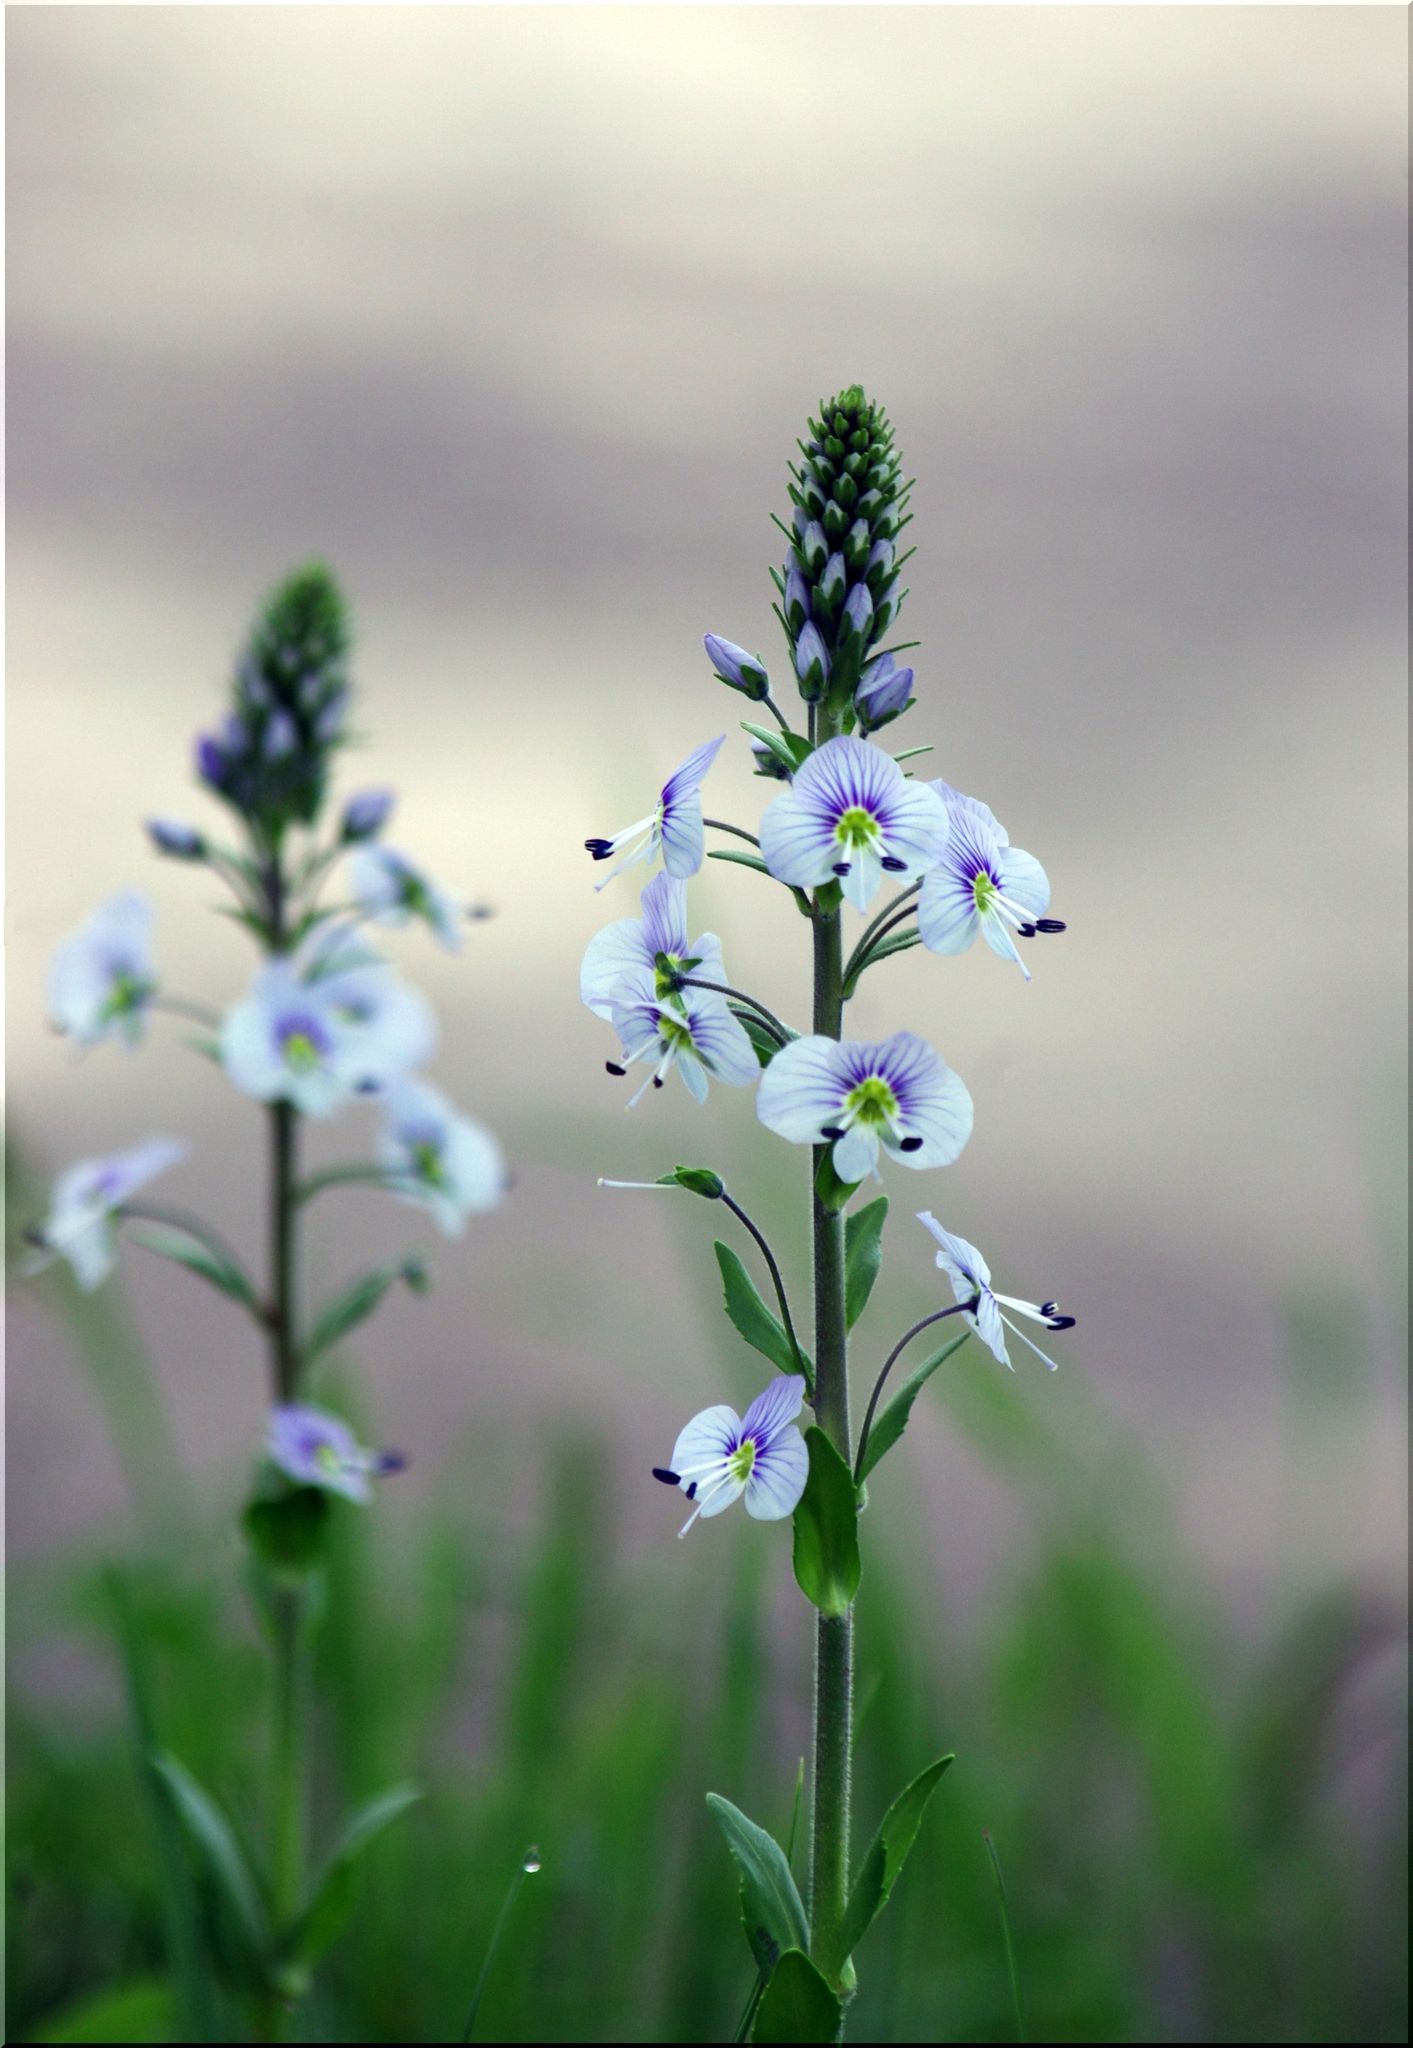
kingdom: Plantae
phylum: Tracheophyta
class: Magnoliopsida
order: Lamiales
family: Plantaginaceae
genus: Veronica
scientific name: Veronica gentianoides
